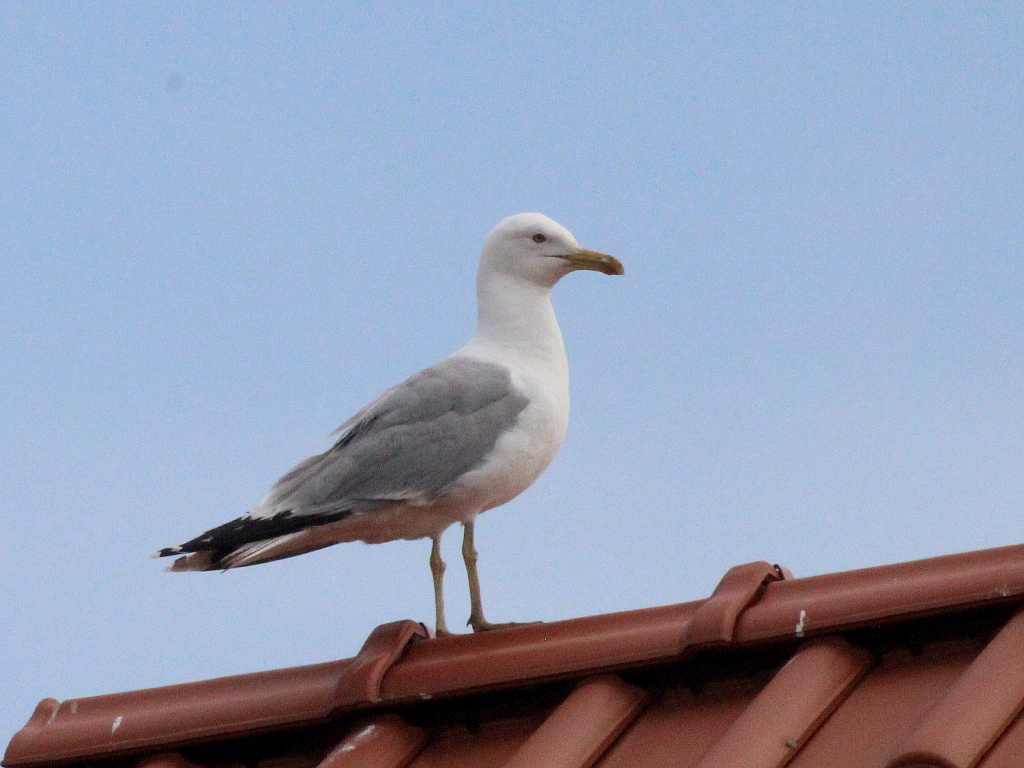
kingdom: Animalia
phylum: Chordata
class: Aves
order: Charadriiformes
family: Laridae
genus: Larus
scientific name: Larus cachinnans
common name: Caspian gull
